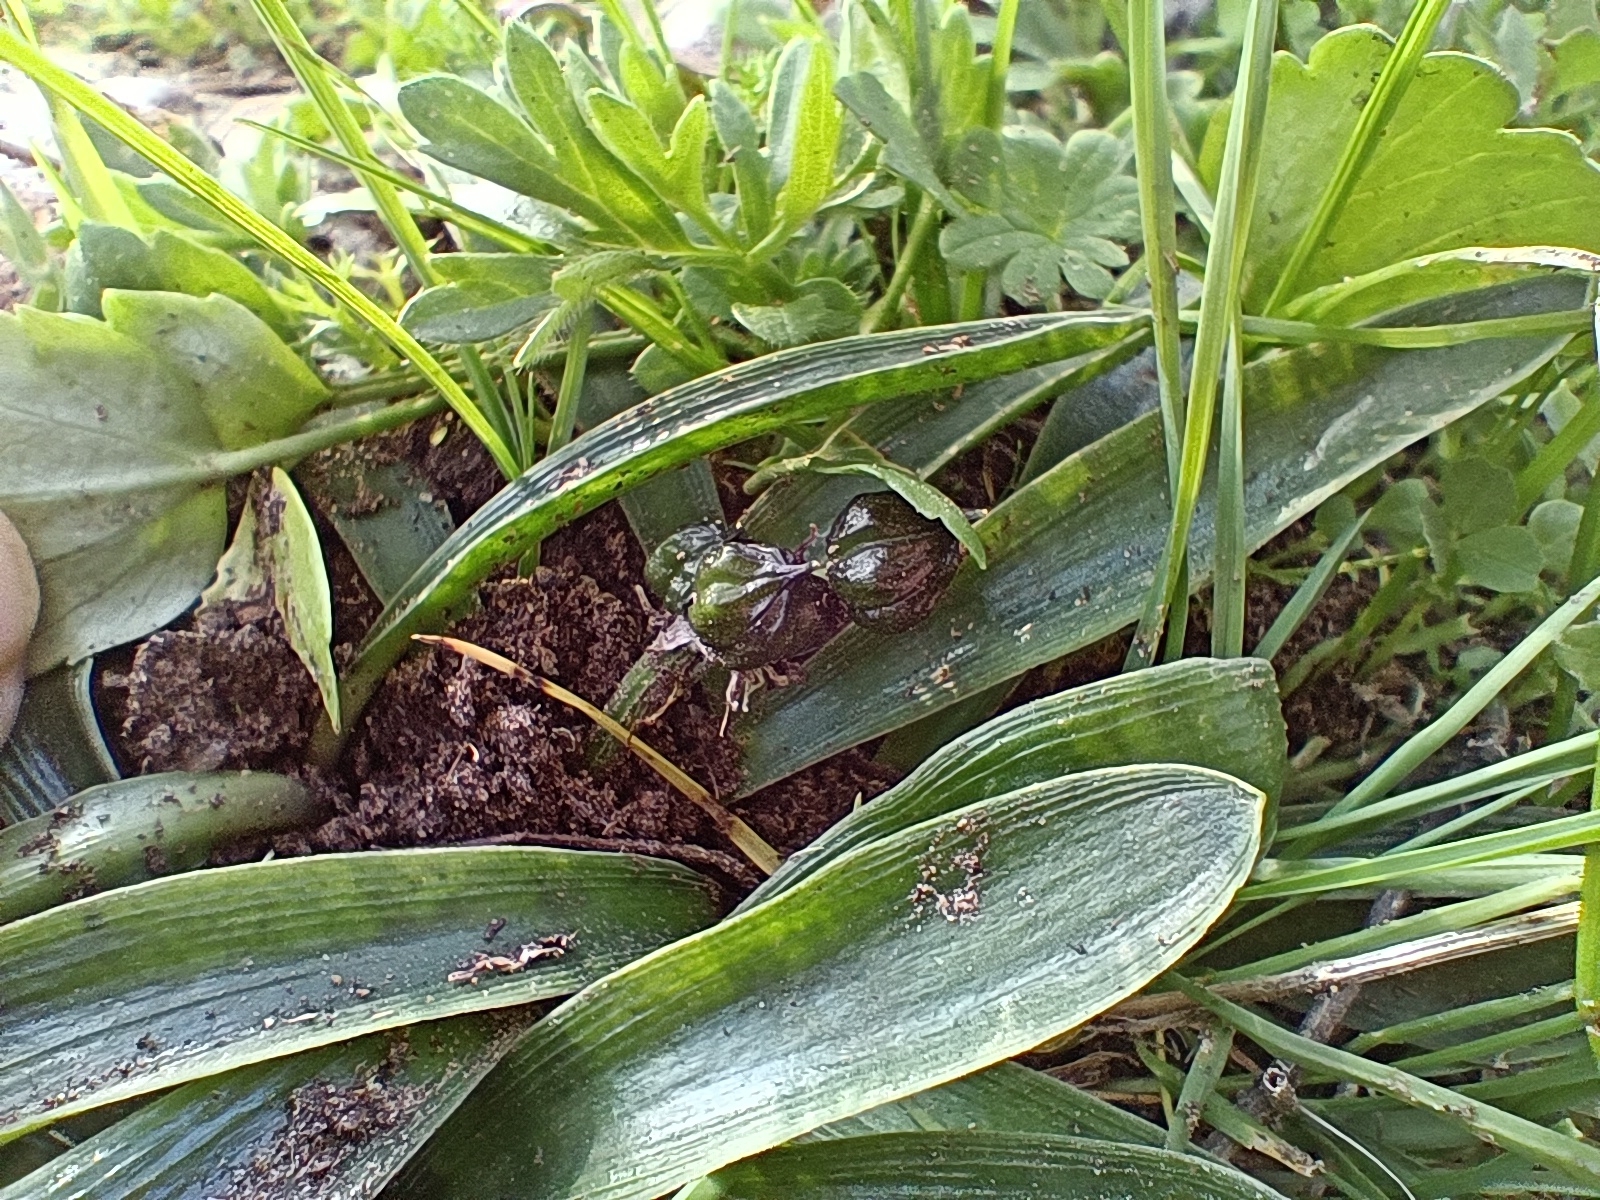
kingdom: Plantae
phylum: Tracheophyta
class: Liliopsida
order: Asparagales
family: Asparagaceae
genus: Hyacinthoides
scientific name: Hyacinthoides lingulata
